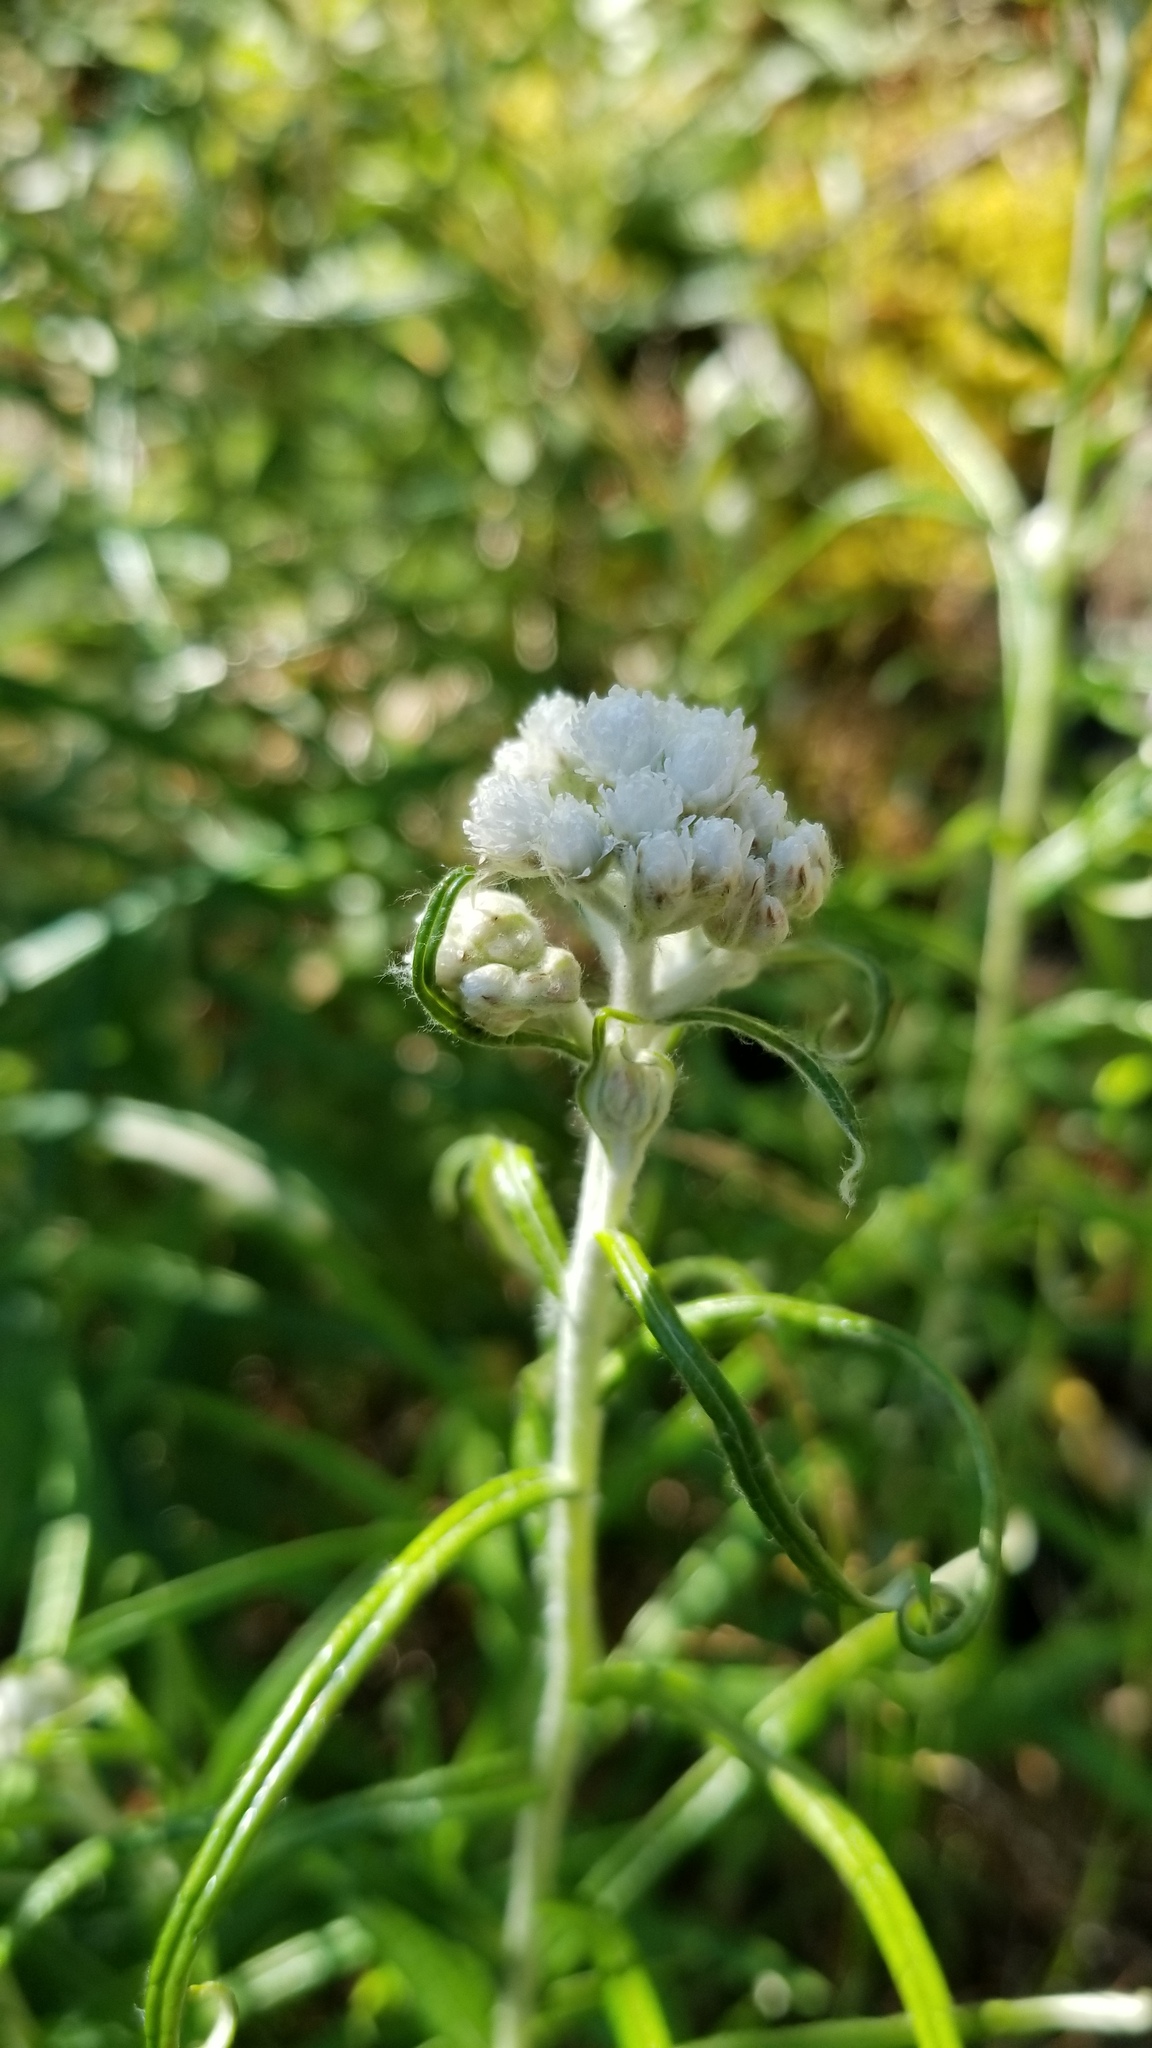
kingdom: Plantae
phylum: Tracheophyta
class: Magnoliopsida
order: Asterales
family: Asteraceae
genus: Anaphalis
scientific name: Anaphalis margaritacea
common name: Pearly everlasting
